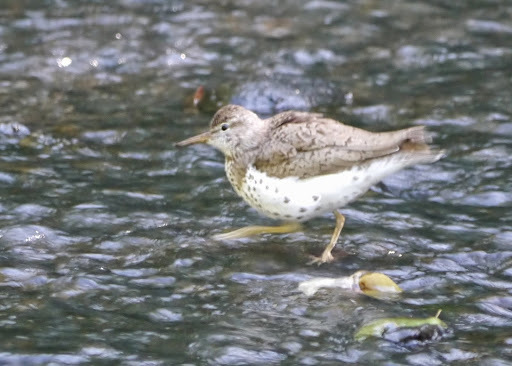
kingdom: Animalia
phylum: Chordata
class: Aves
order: Charadriiformes
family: Scolopacidae
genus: Actitis
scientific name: Actitis macularius
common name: Spotted sandpiper
